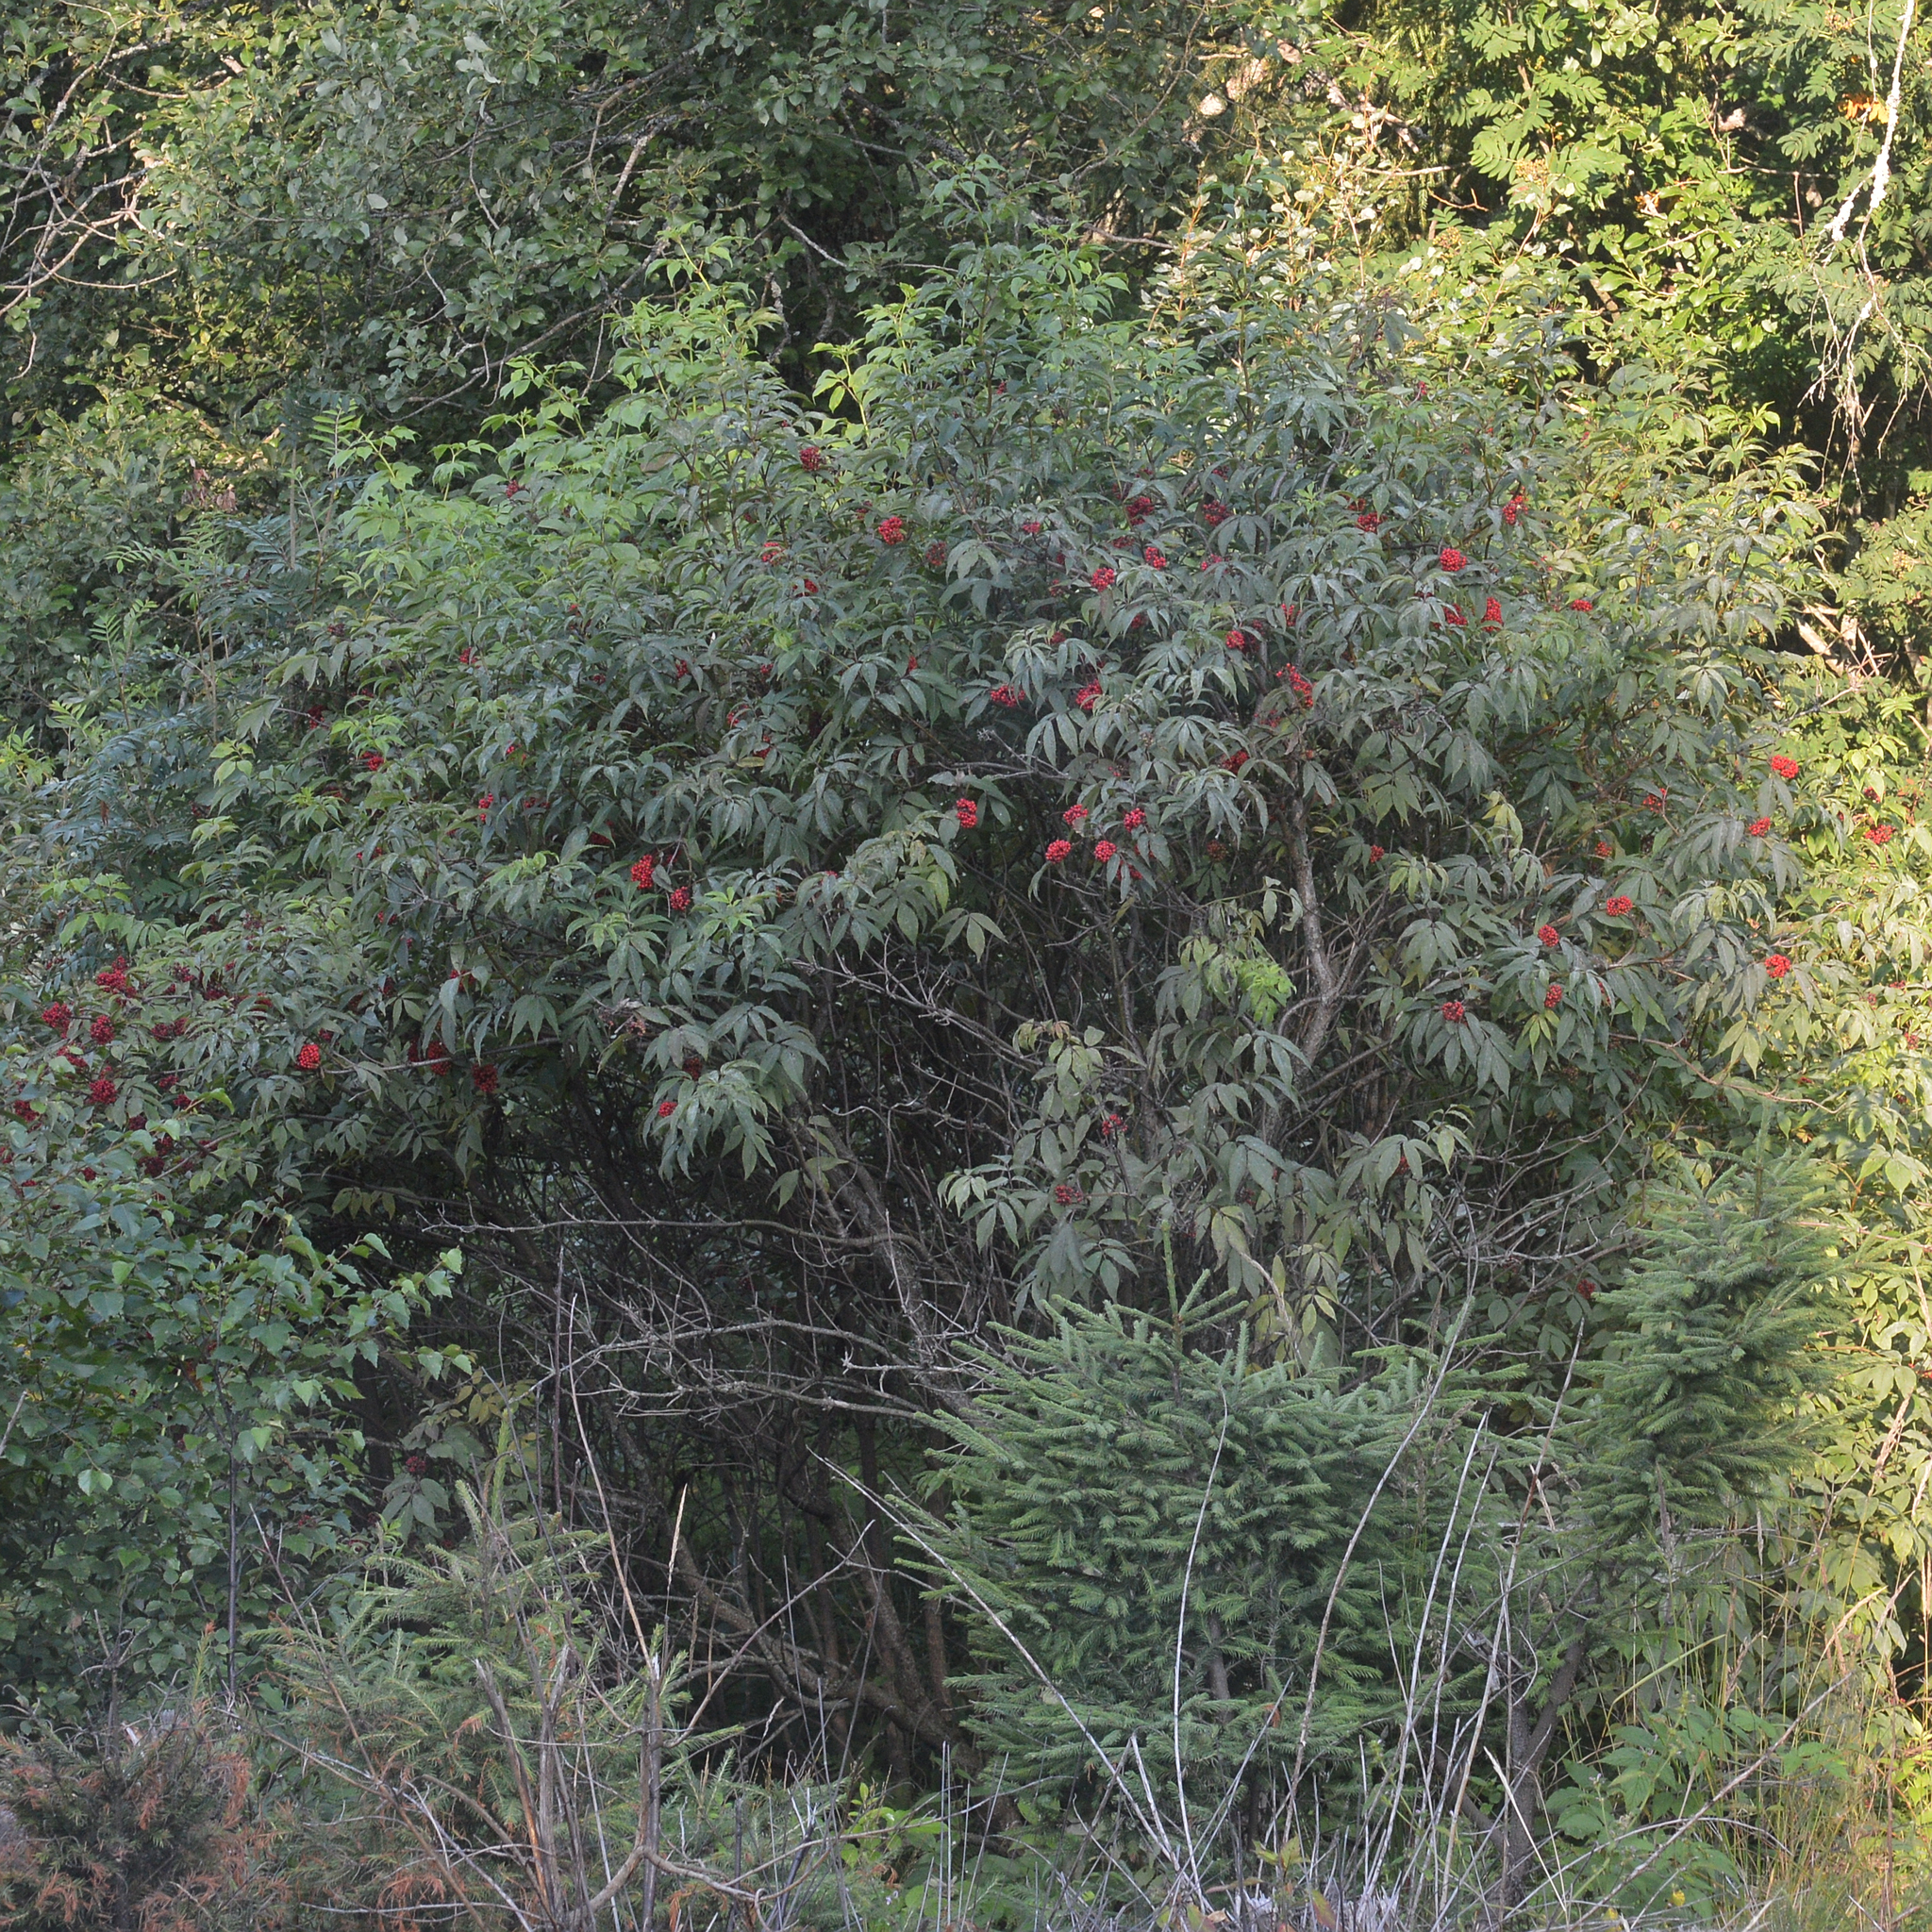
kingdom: Plantae
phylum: Tracheophyta
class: Magnoliopsida
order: Dipsacales
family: Viburnaceae
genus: Sambucus
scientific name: Sambucus racemosa
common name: Red-berried elder
